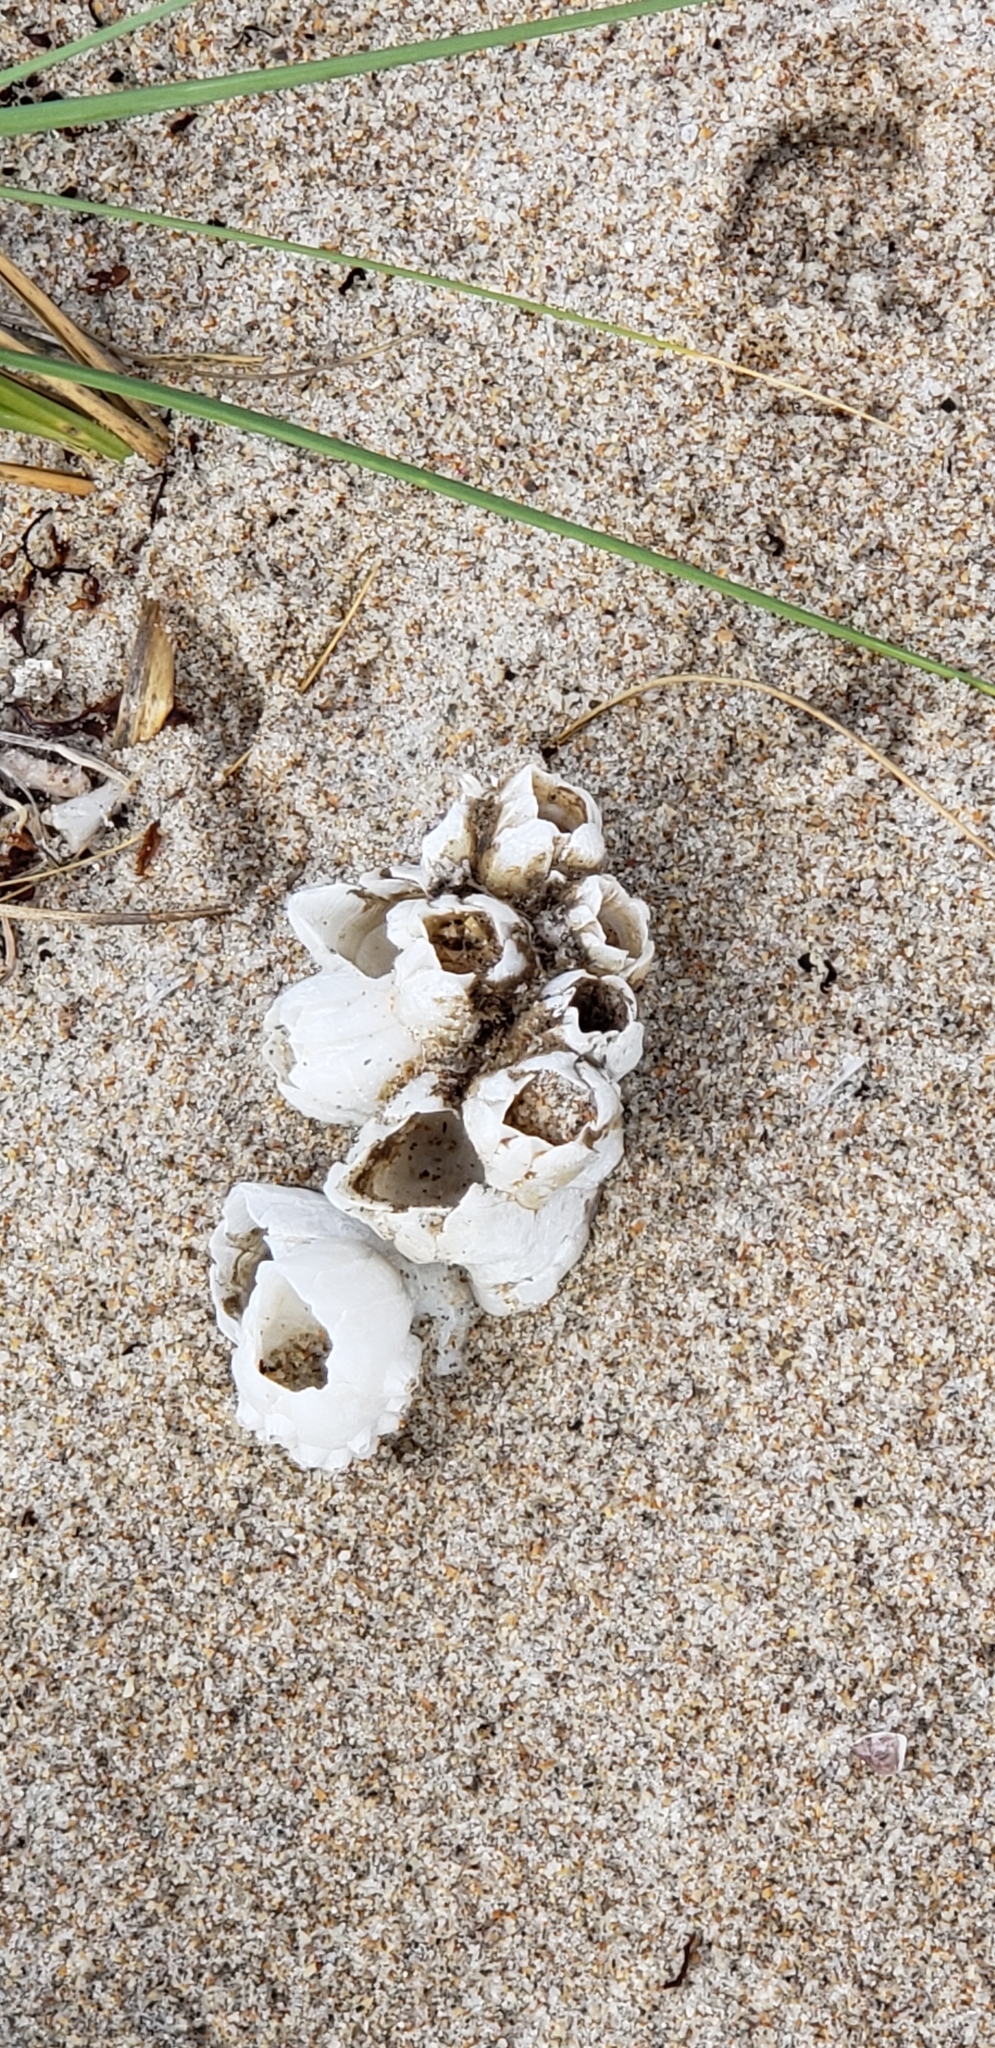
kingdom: Animalia
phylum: Arthropoda
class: Maxillopoda
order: Sessilia
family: Balanidae
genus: Amphibalanus
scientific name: Amphibalanus eburneus
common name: Ivory barnacle
